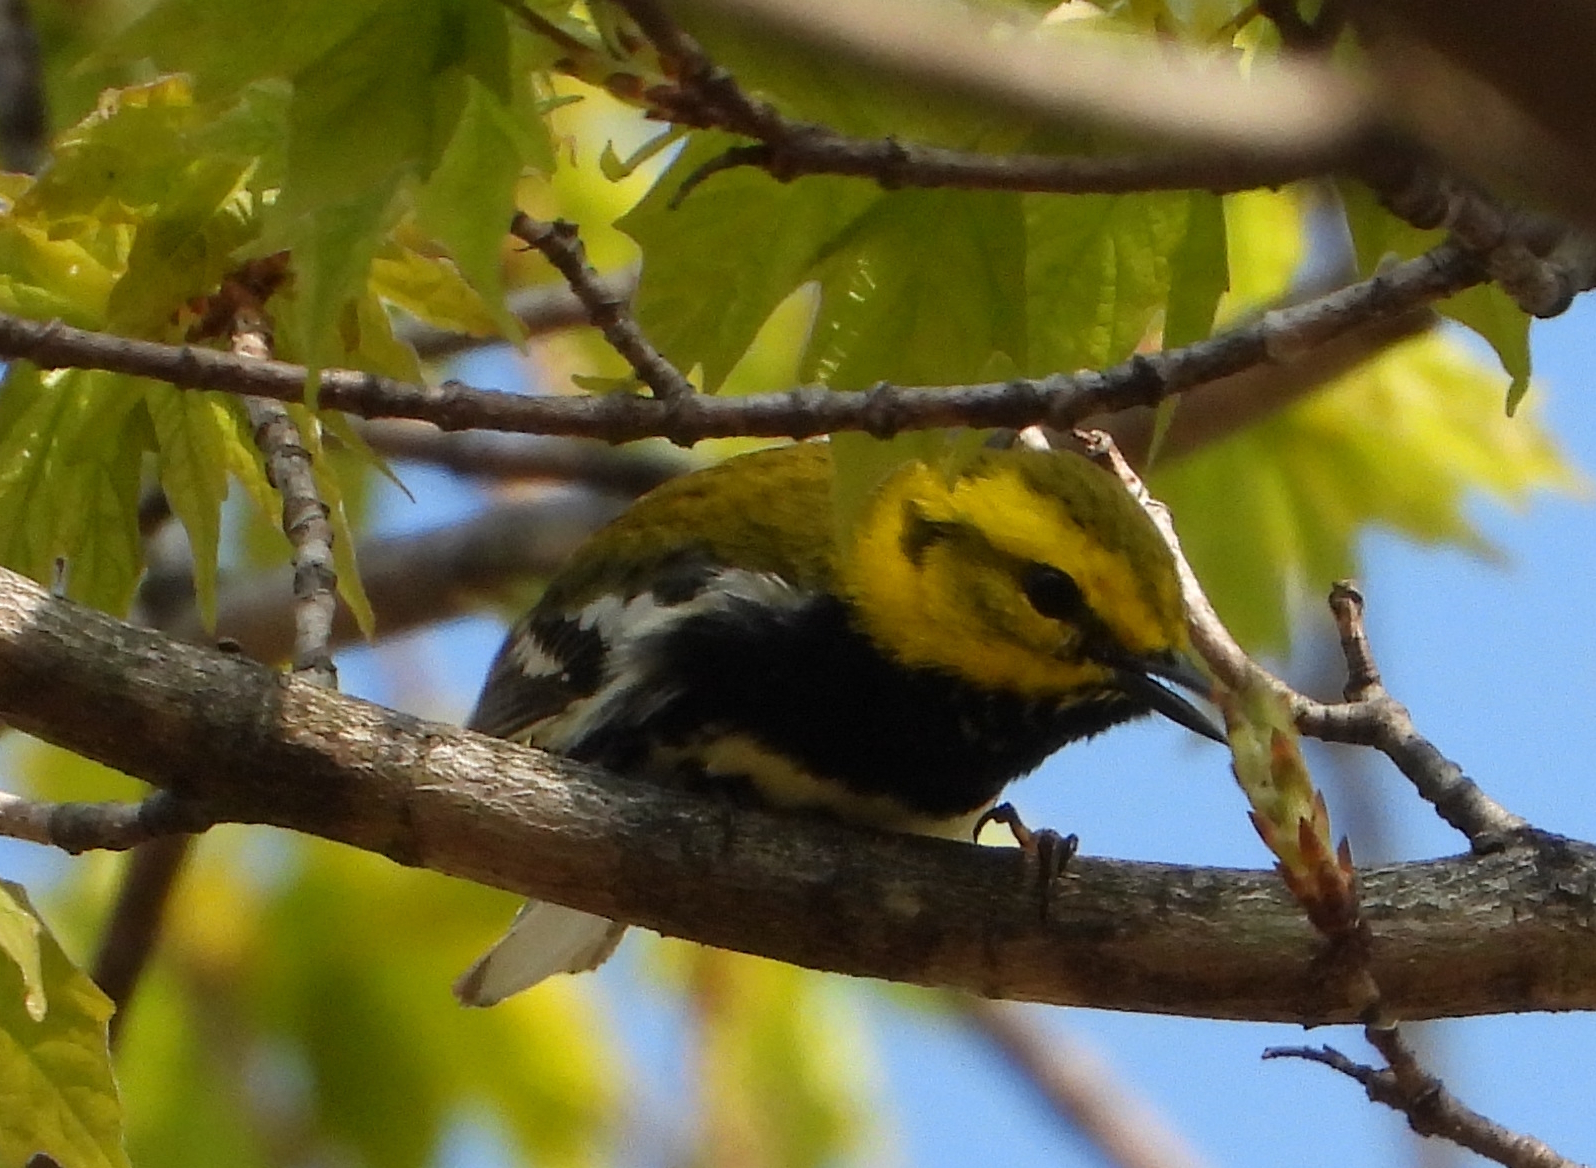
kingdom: Animalia
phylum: Chordata
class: Aves
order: Passeriformes
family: Parulidae
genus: Setophaga
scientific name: Setophaga virens
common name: Black-throated green warbler
